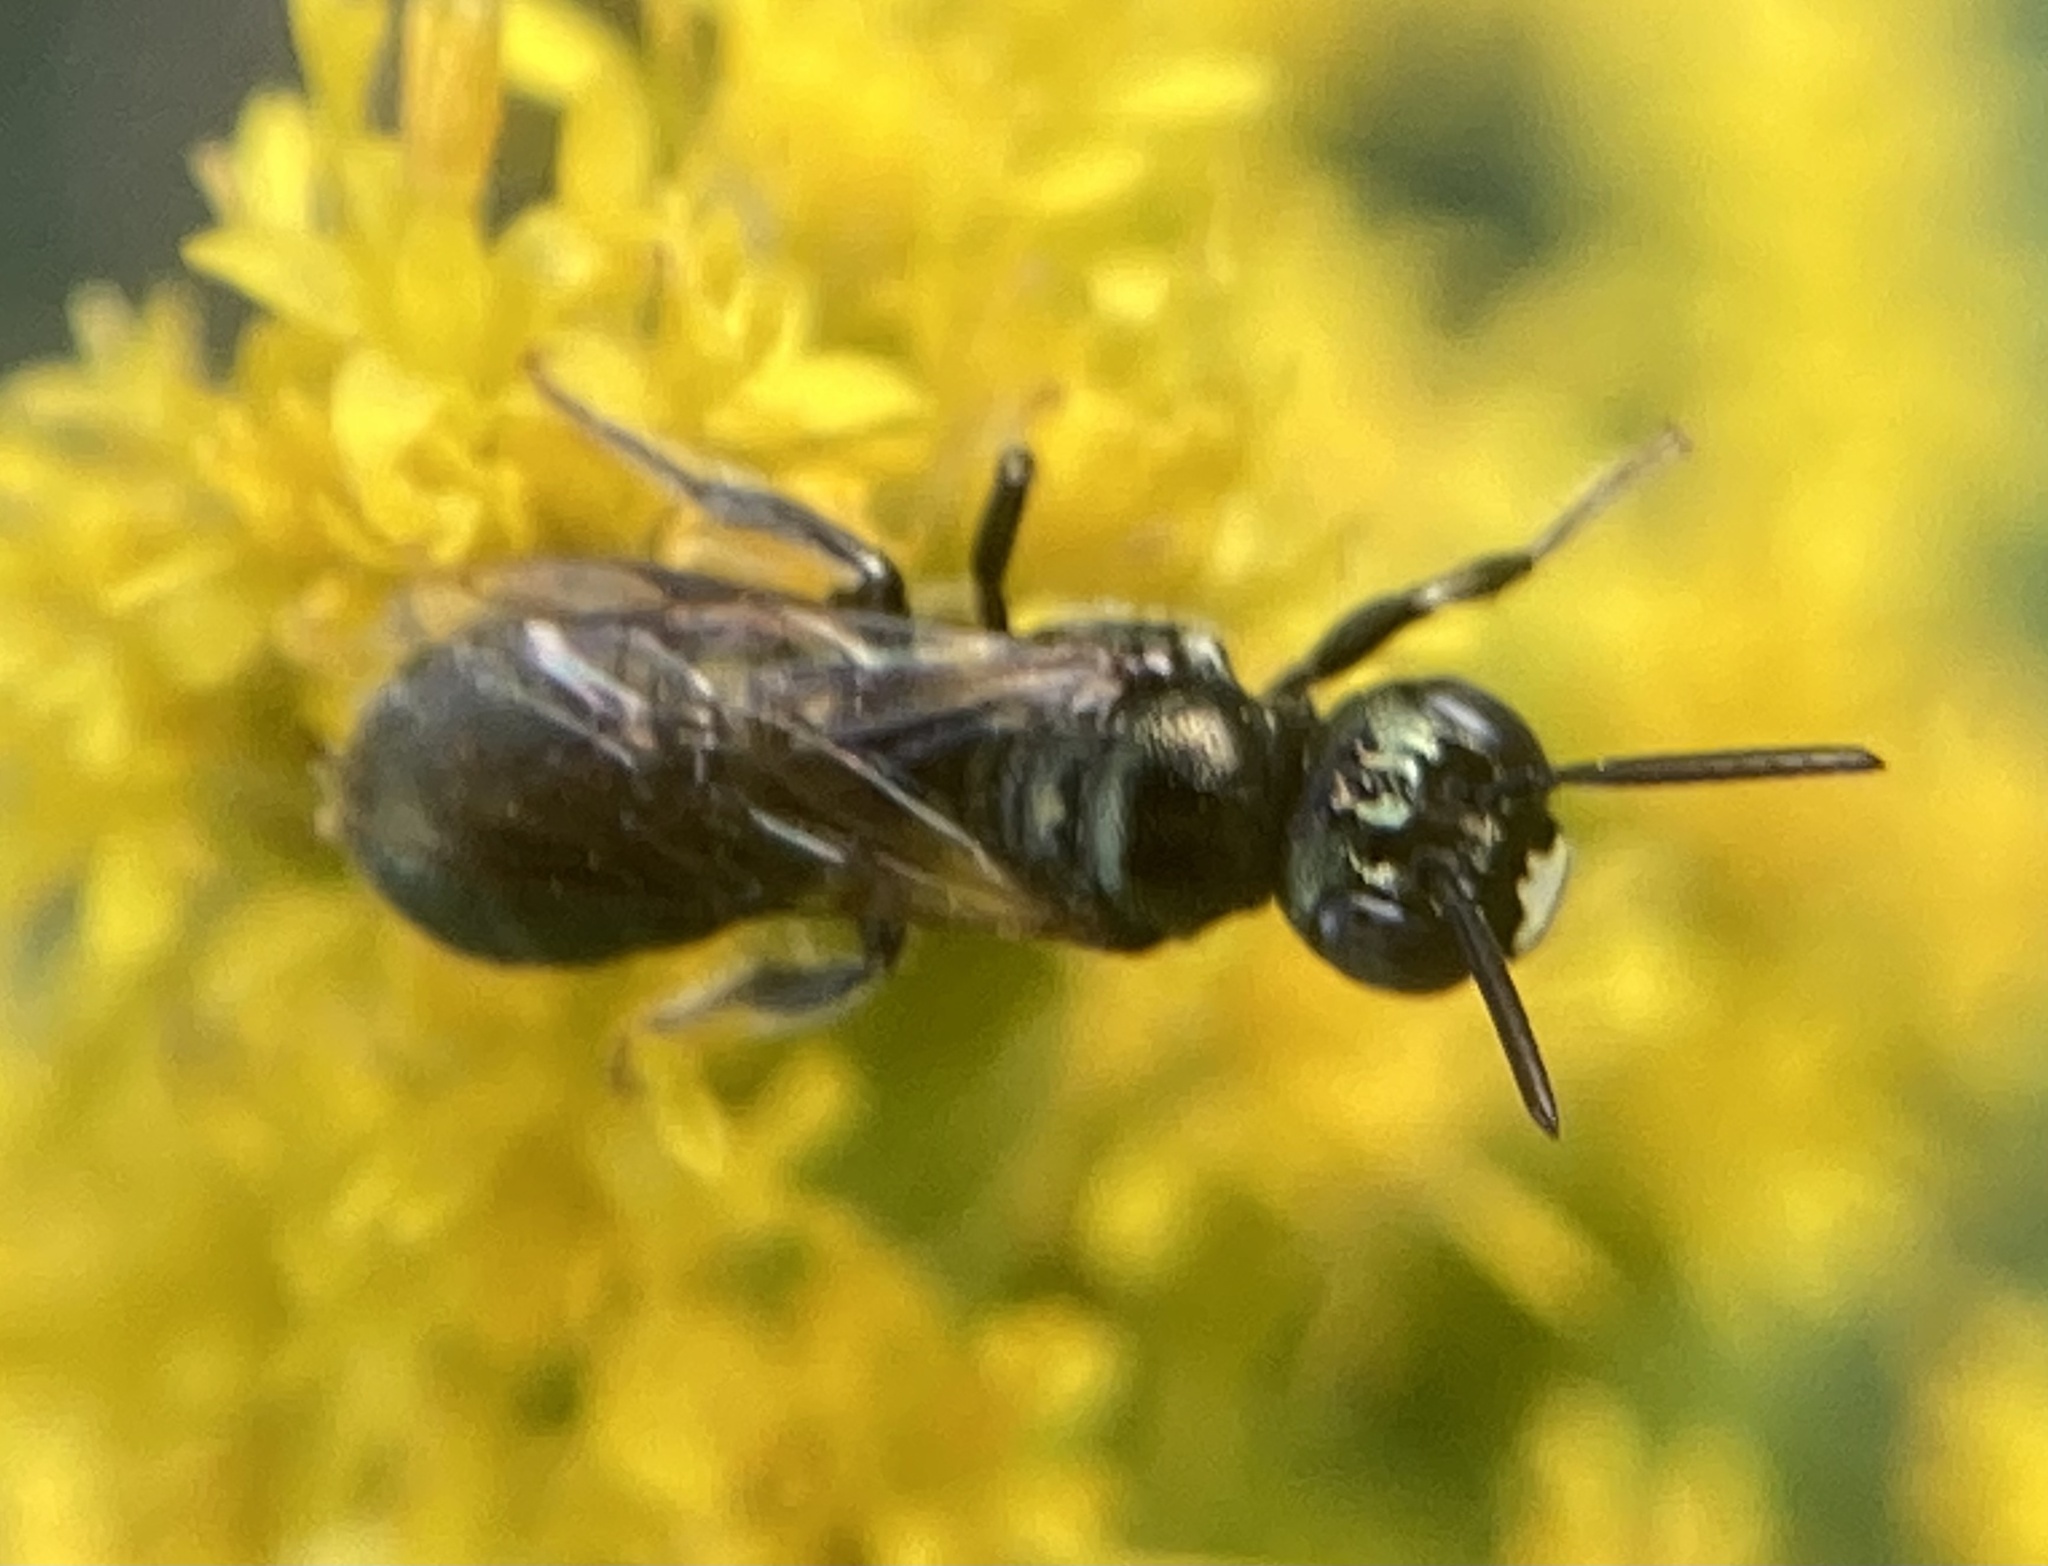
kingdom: Animalia
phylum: Arthropoda
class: Insecta
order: Hymenoptera
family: Apidae
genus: Zadontomerus
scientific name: Zadontomerus
